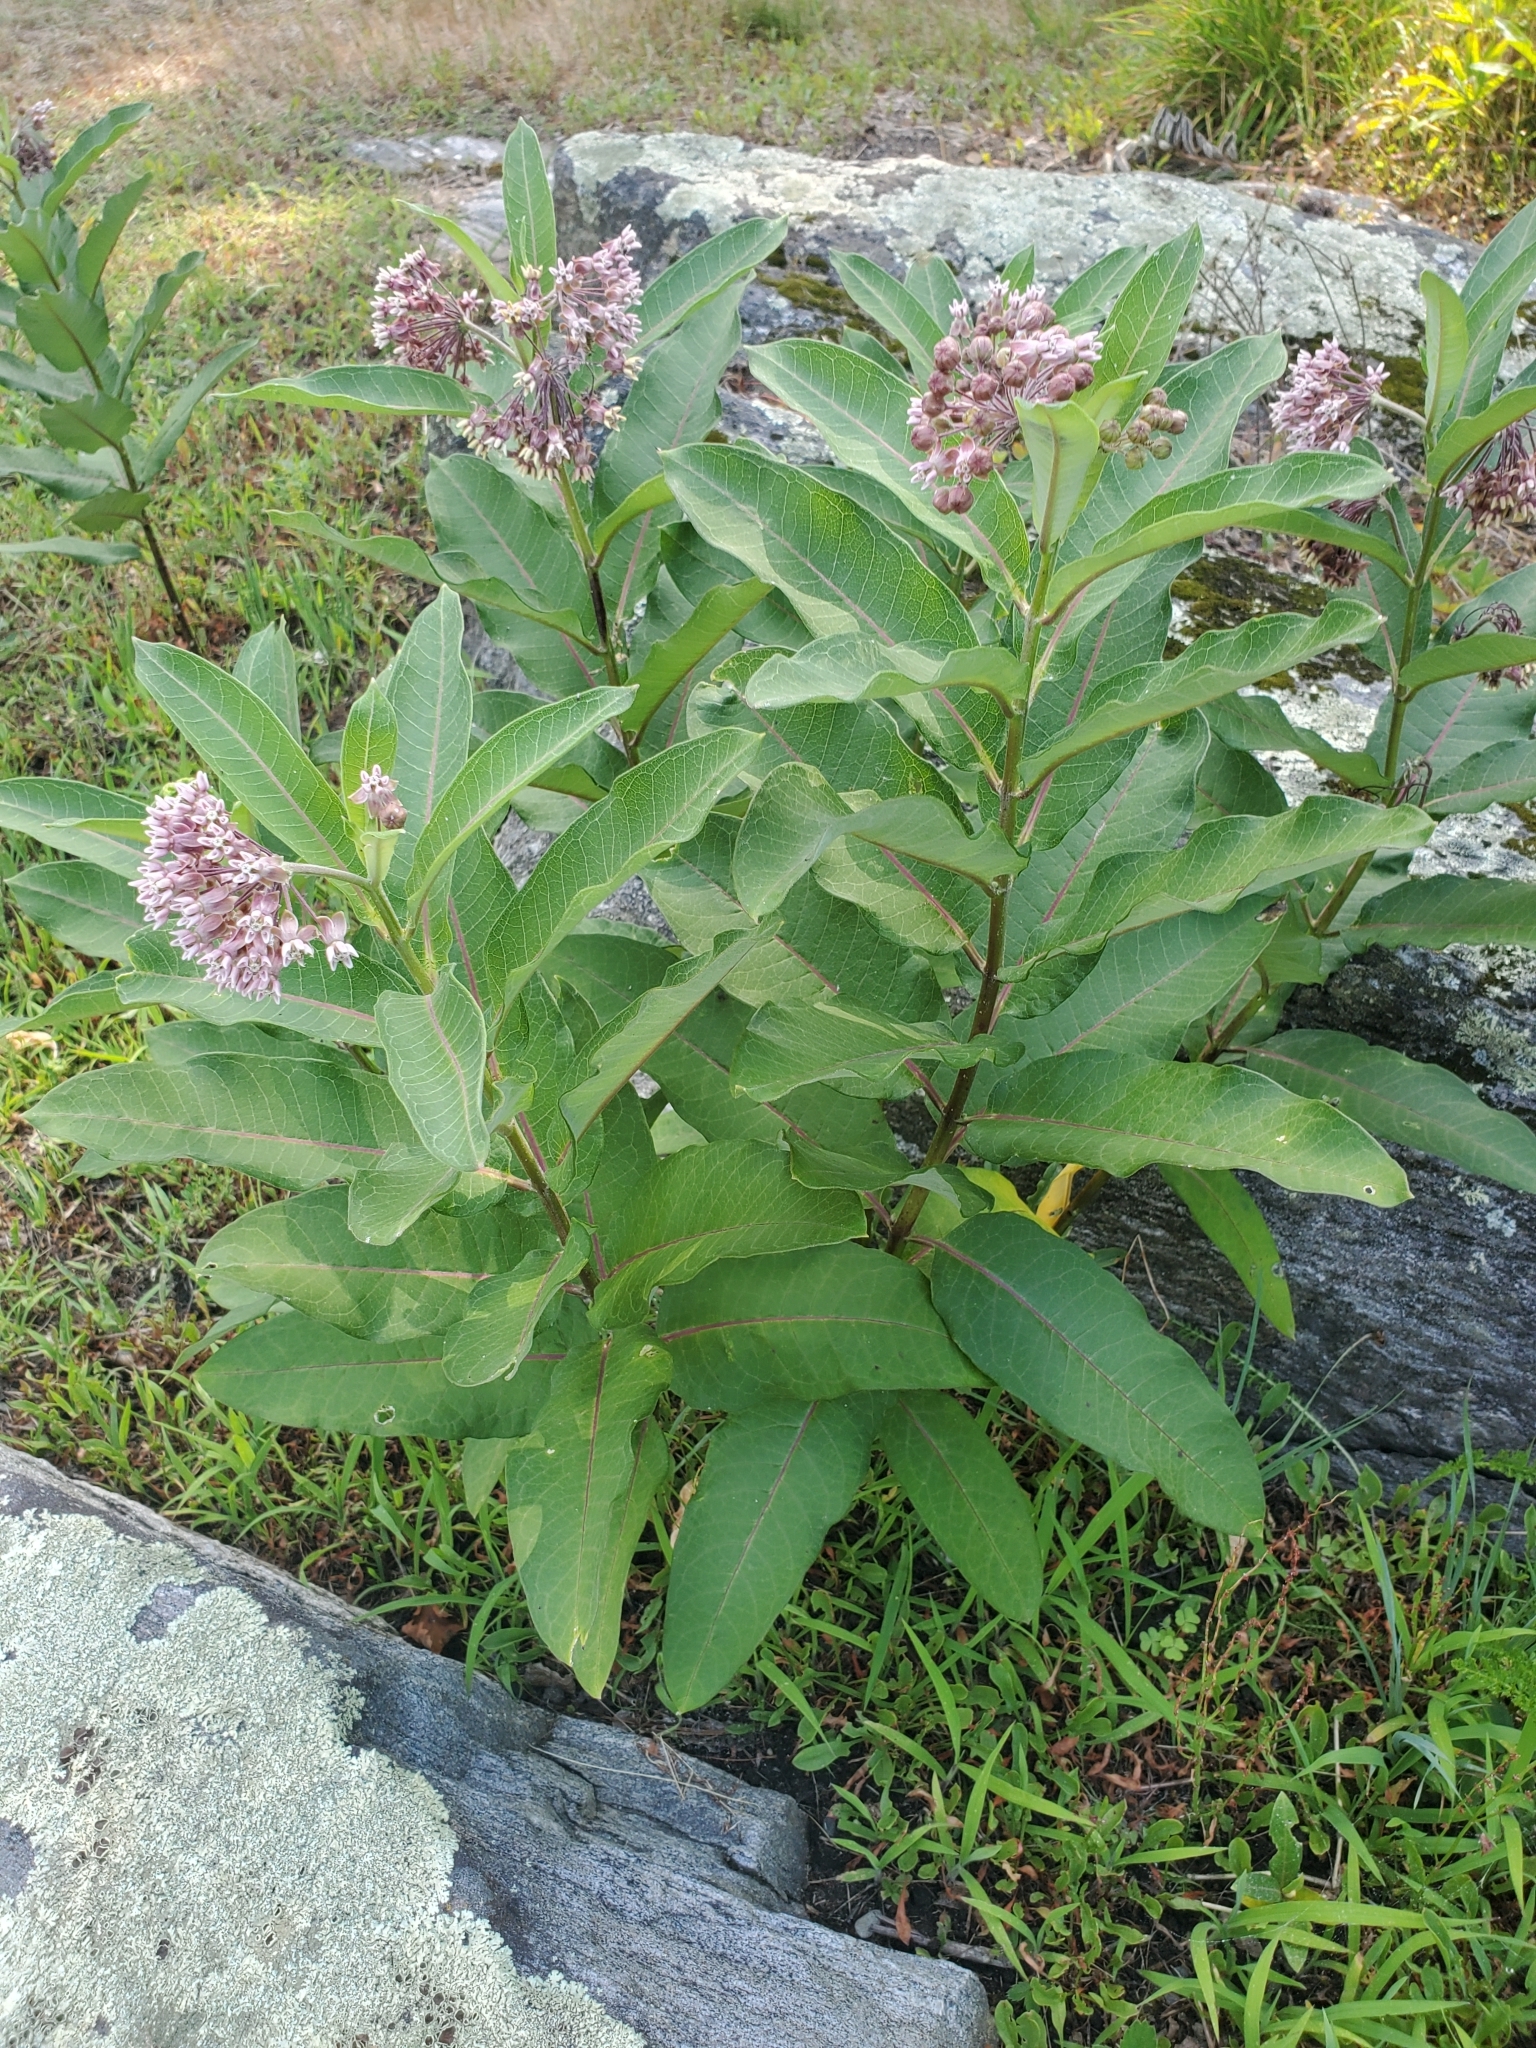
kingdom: Plantae
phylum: Tracheophyta
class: Magnoliopsida
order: Gentianales
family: Apocynaceae
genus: Asclepias
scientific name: Asclepias syriaca
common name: Common milkweed
